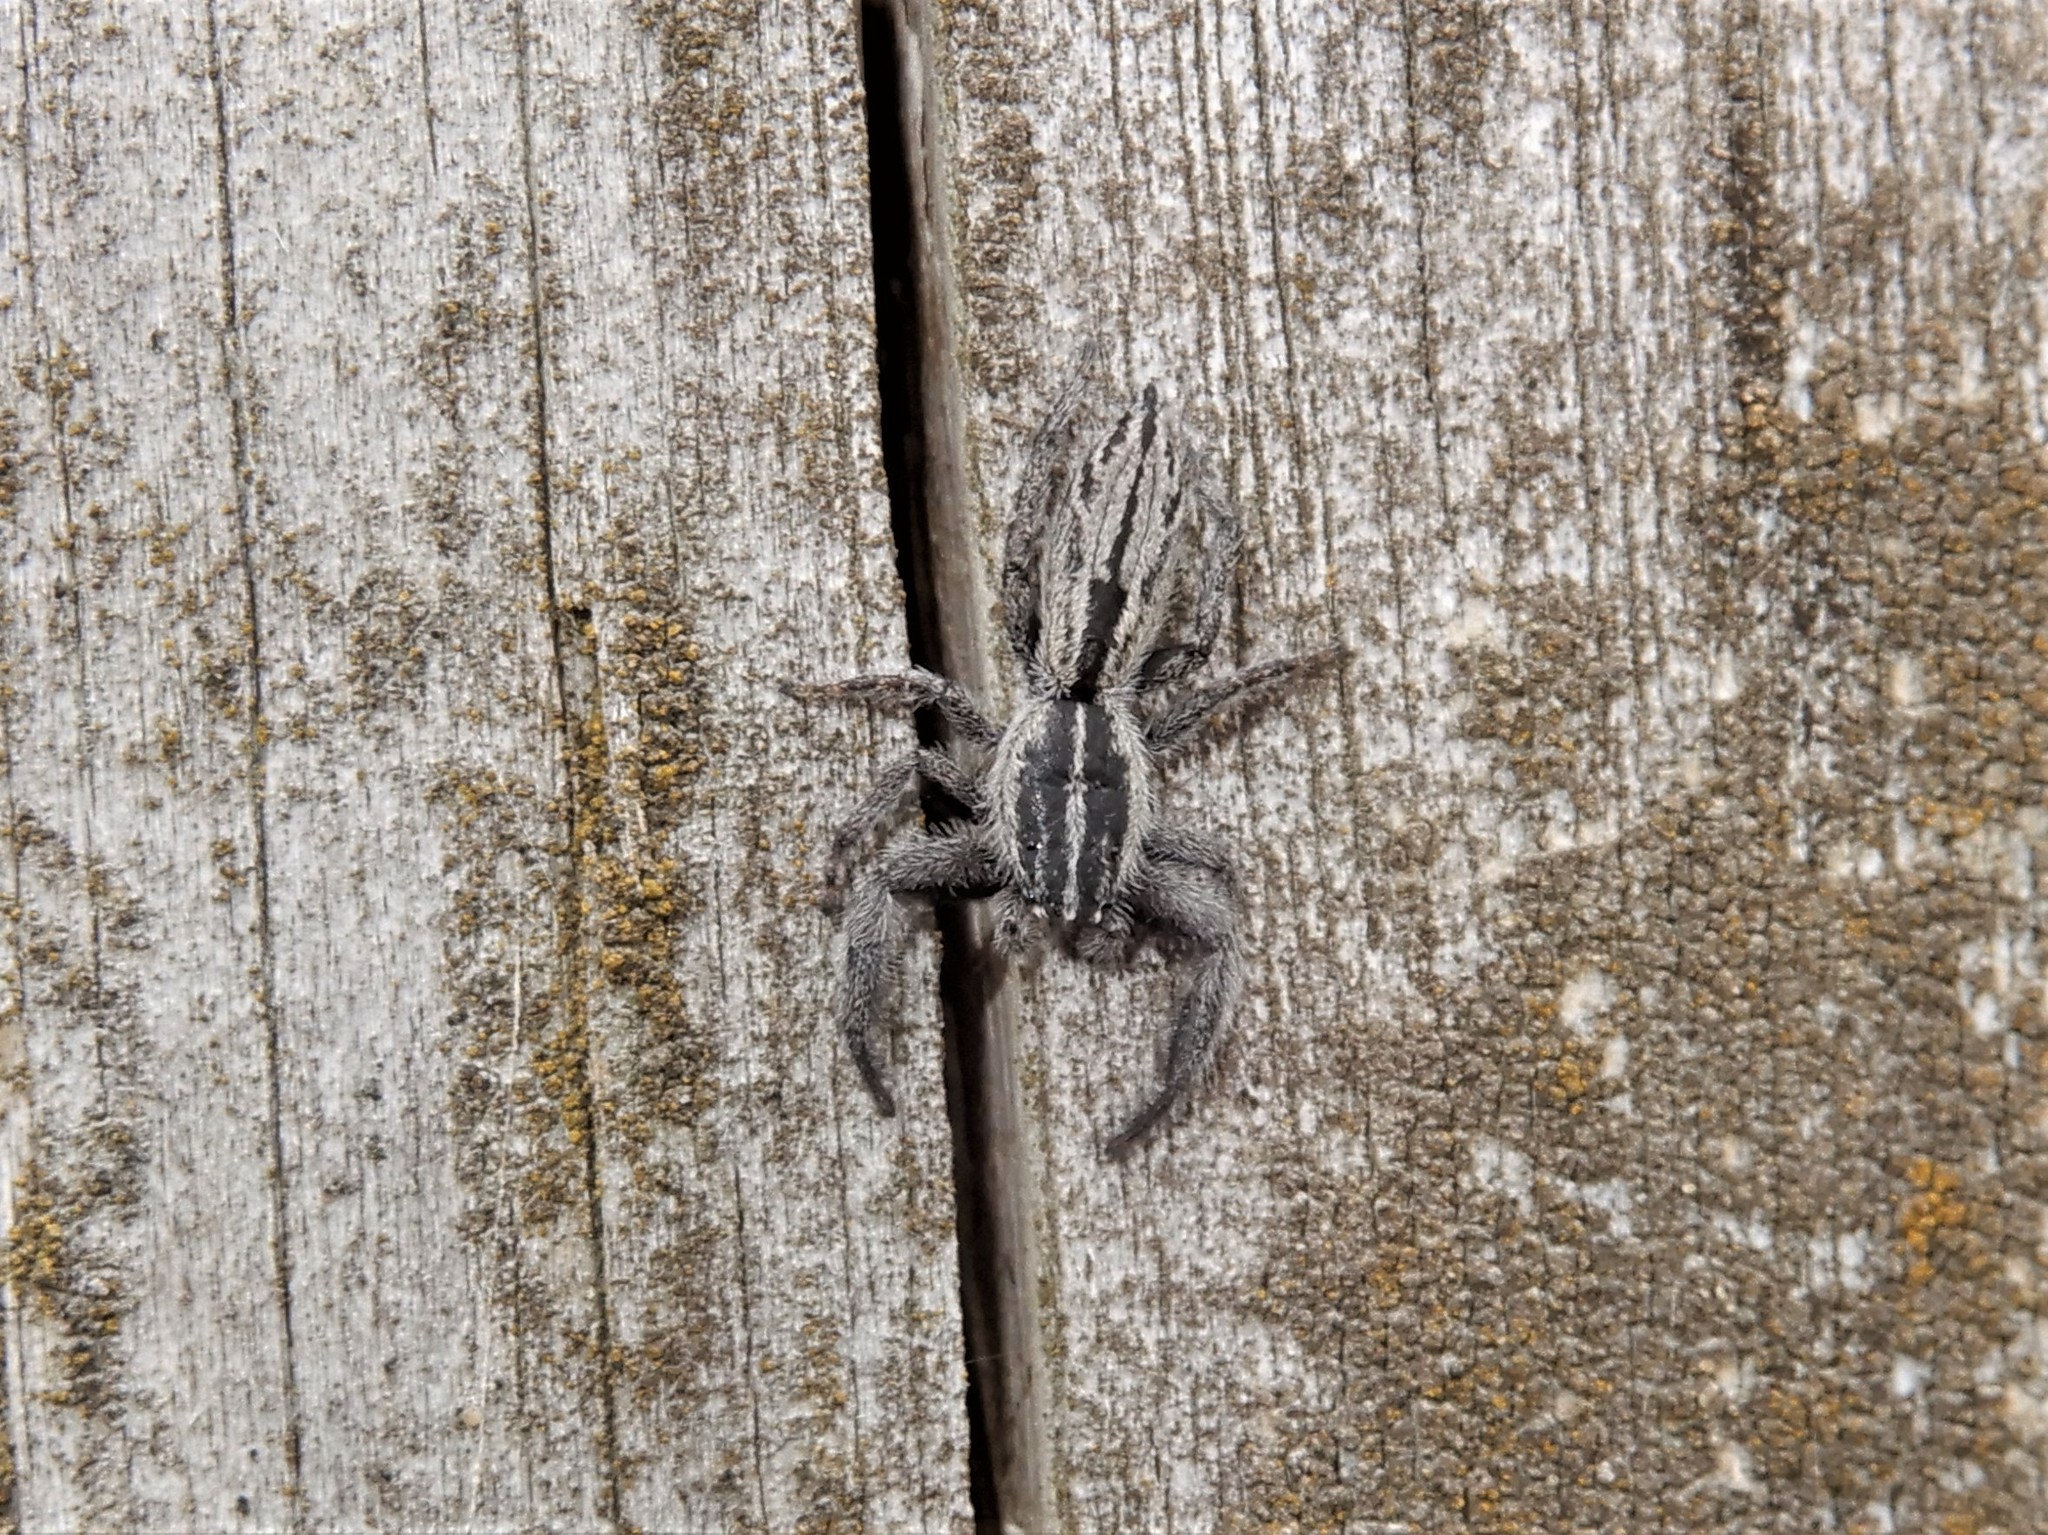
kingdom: Animalia
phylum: Arthropoda
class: Arachnida
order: Araneae
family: Salticidae
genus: Holoplatys
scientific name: Holoplatys apressus
